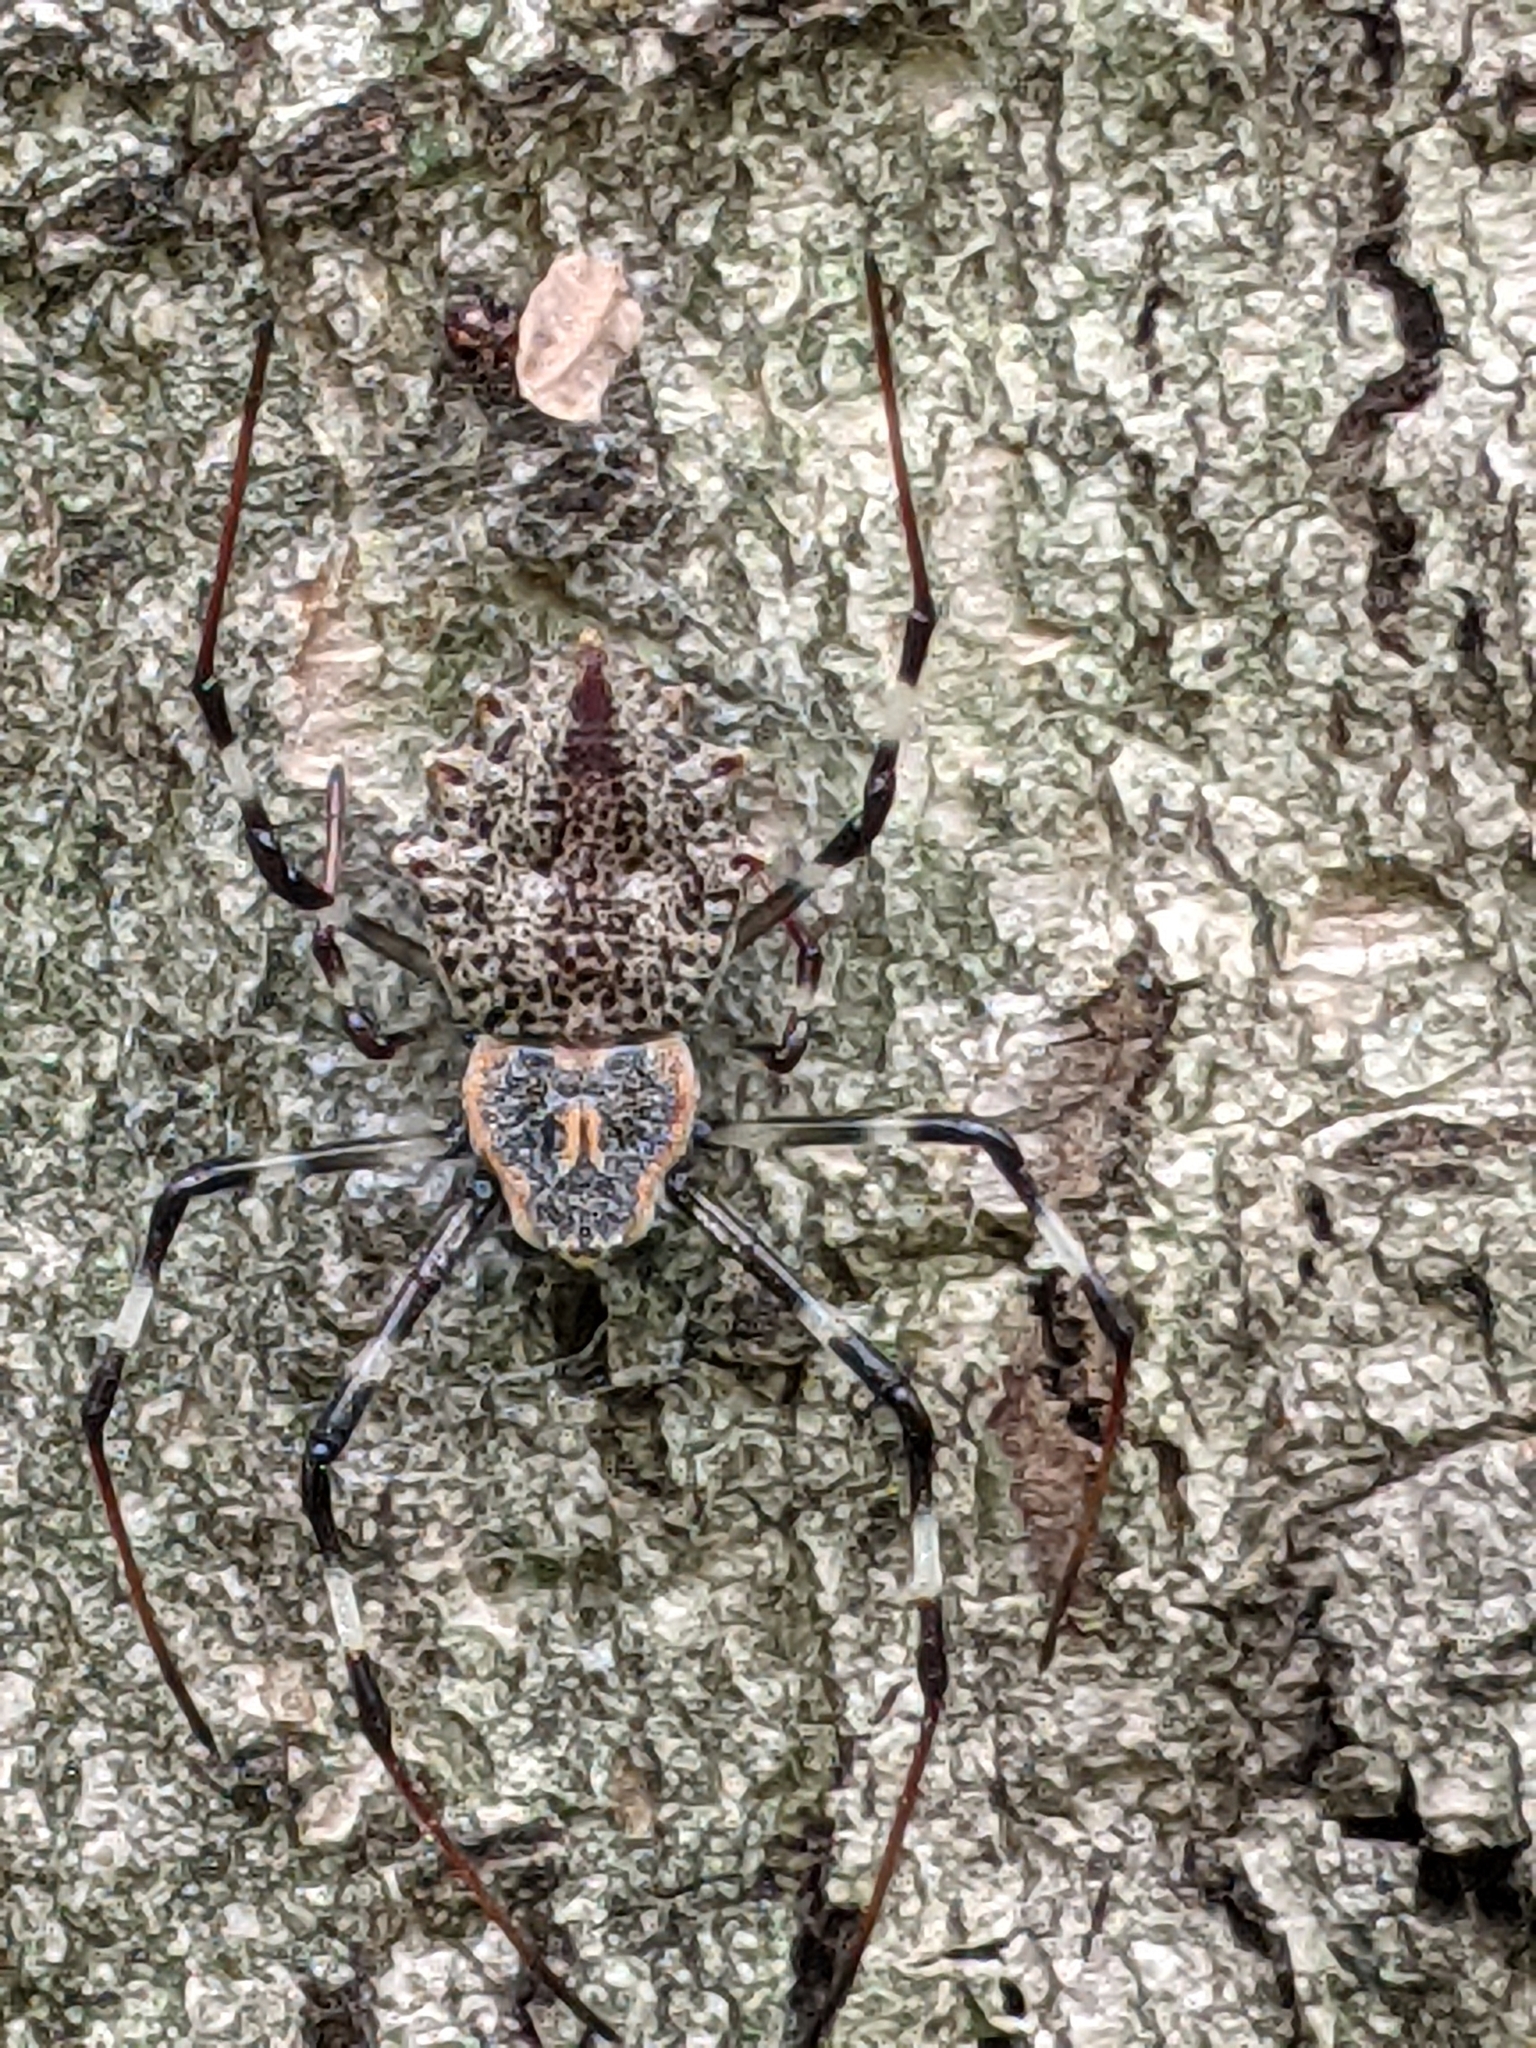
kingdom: Animalia
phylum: Arthropoda
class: Arachnida
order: Araneae
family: Araneidae
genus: Herennia
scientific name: Herennia multipuncta
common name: Spotted coin spider
